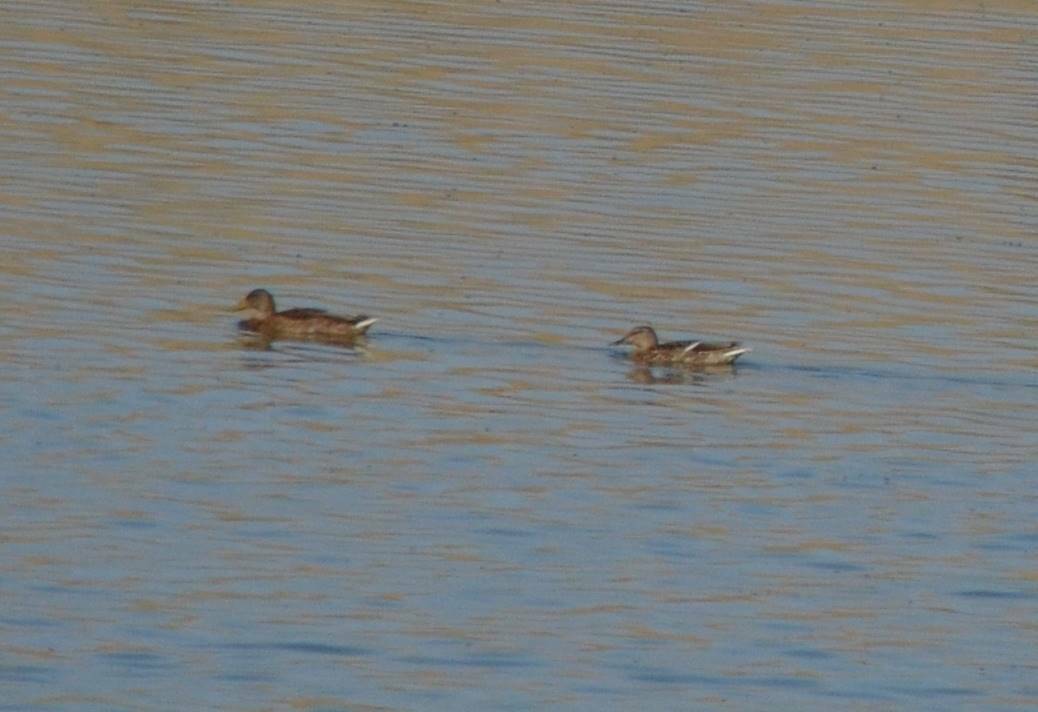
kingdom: Animalia
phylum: Chordata
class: Aves
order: Anseriformes
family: Anatidae
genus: Anas
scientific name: Anas platyrhynchos
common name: Mallard
